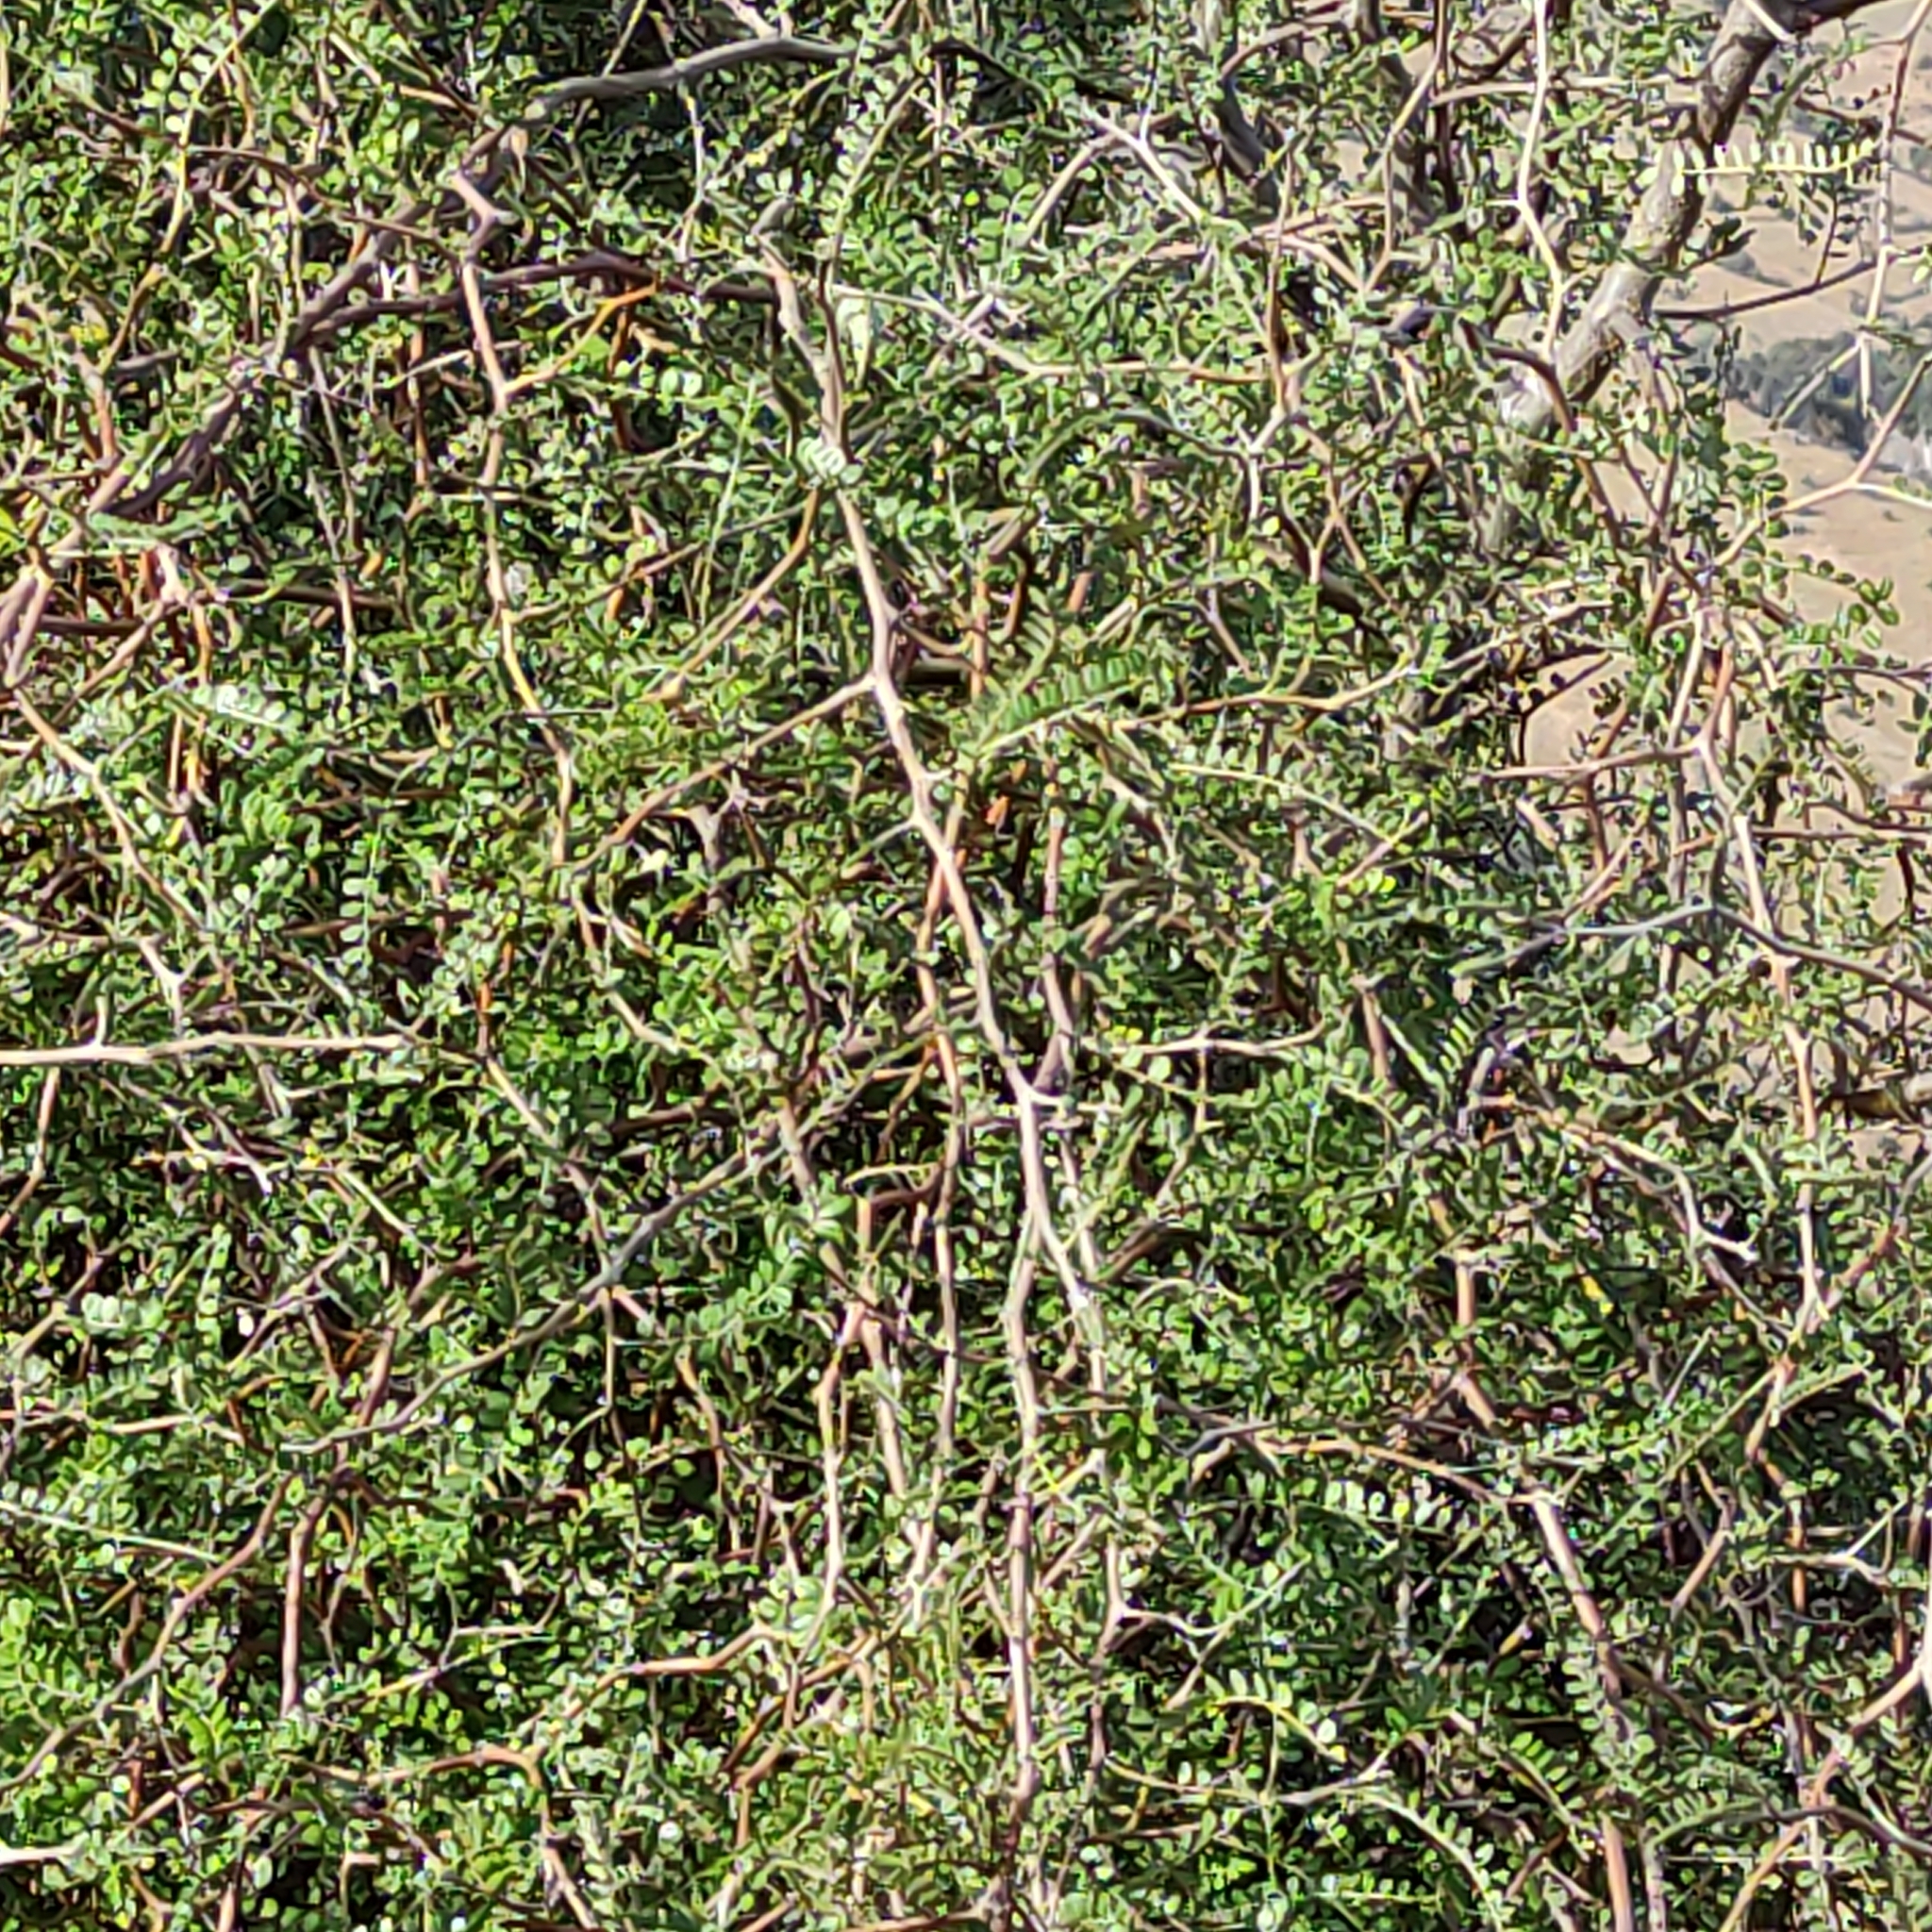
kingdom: Plantae
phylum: Tracheophyta
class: Magnoliopsida
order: Fabales
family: Fabaceae
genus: Sophora
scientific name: Sophora microphylla
